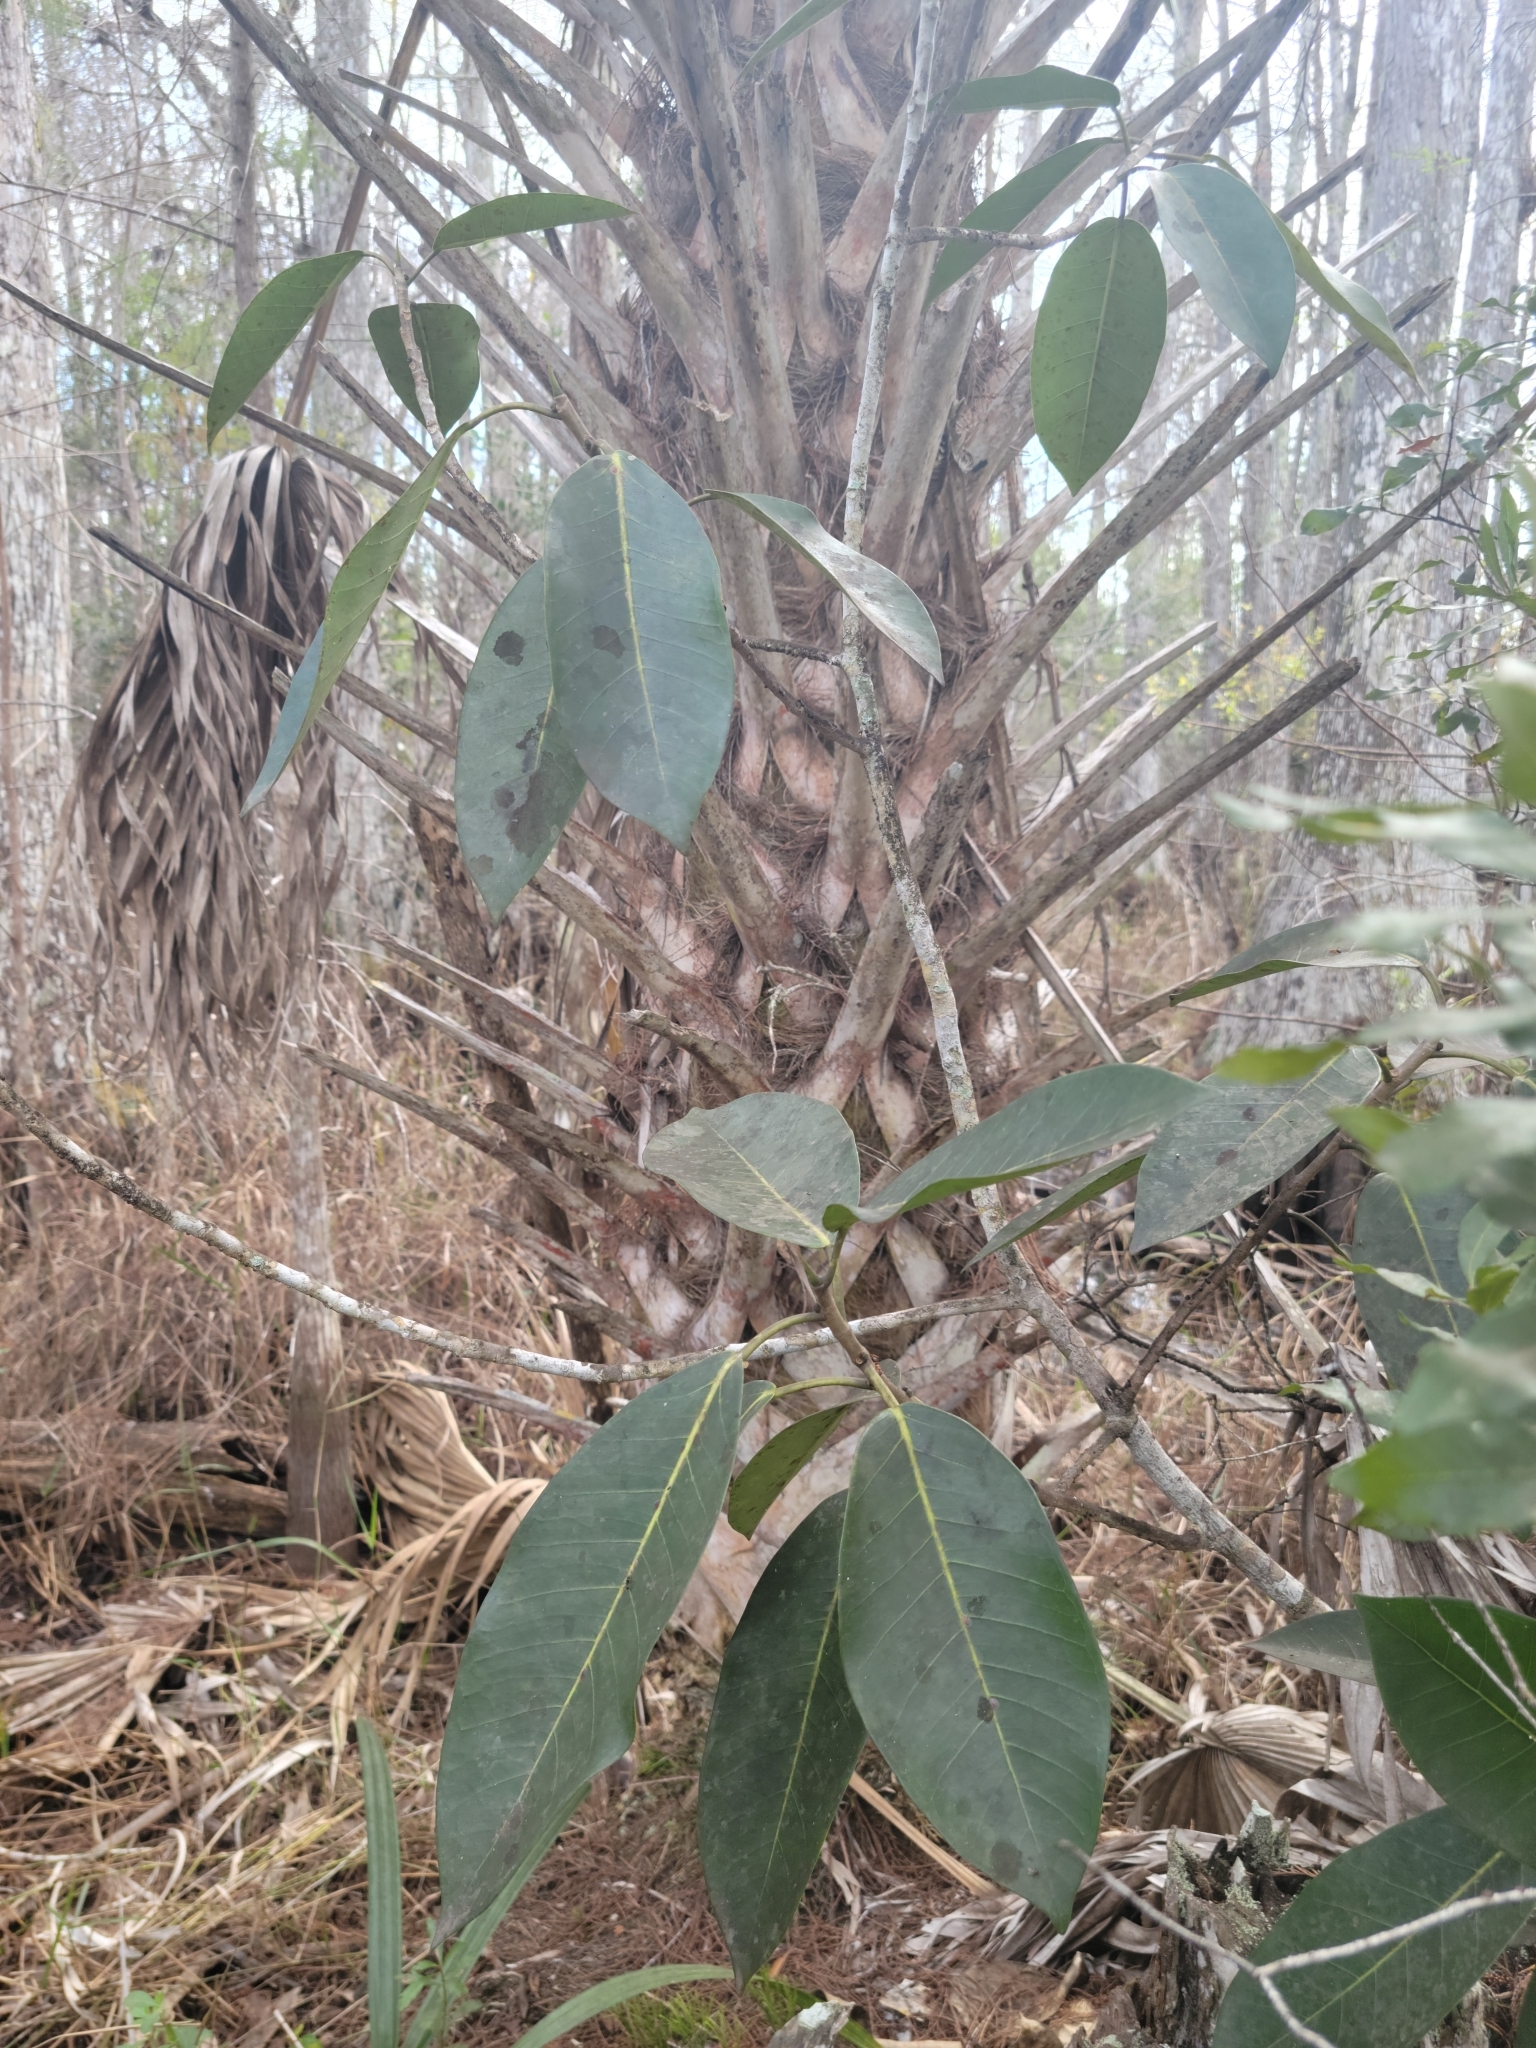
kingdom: Plantae
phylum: Tracheophyta
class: Magnoliopsida
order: Rosales
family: Moraceae
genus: Ficus
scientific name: Ficus aurea
